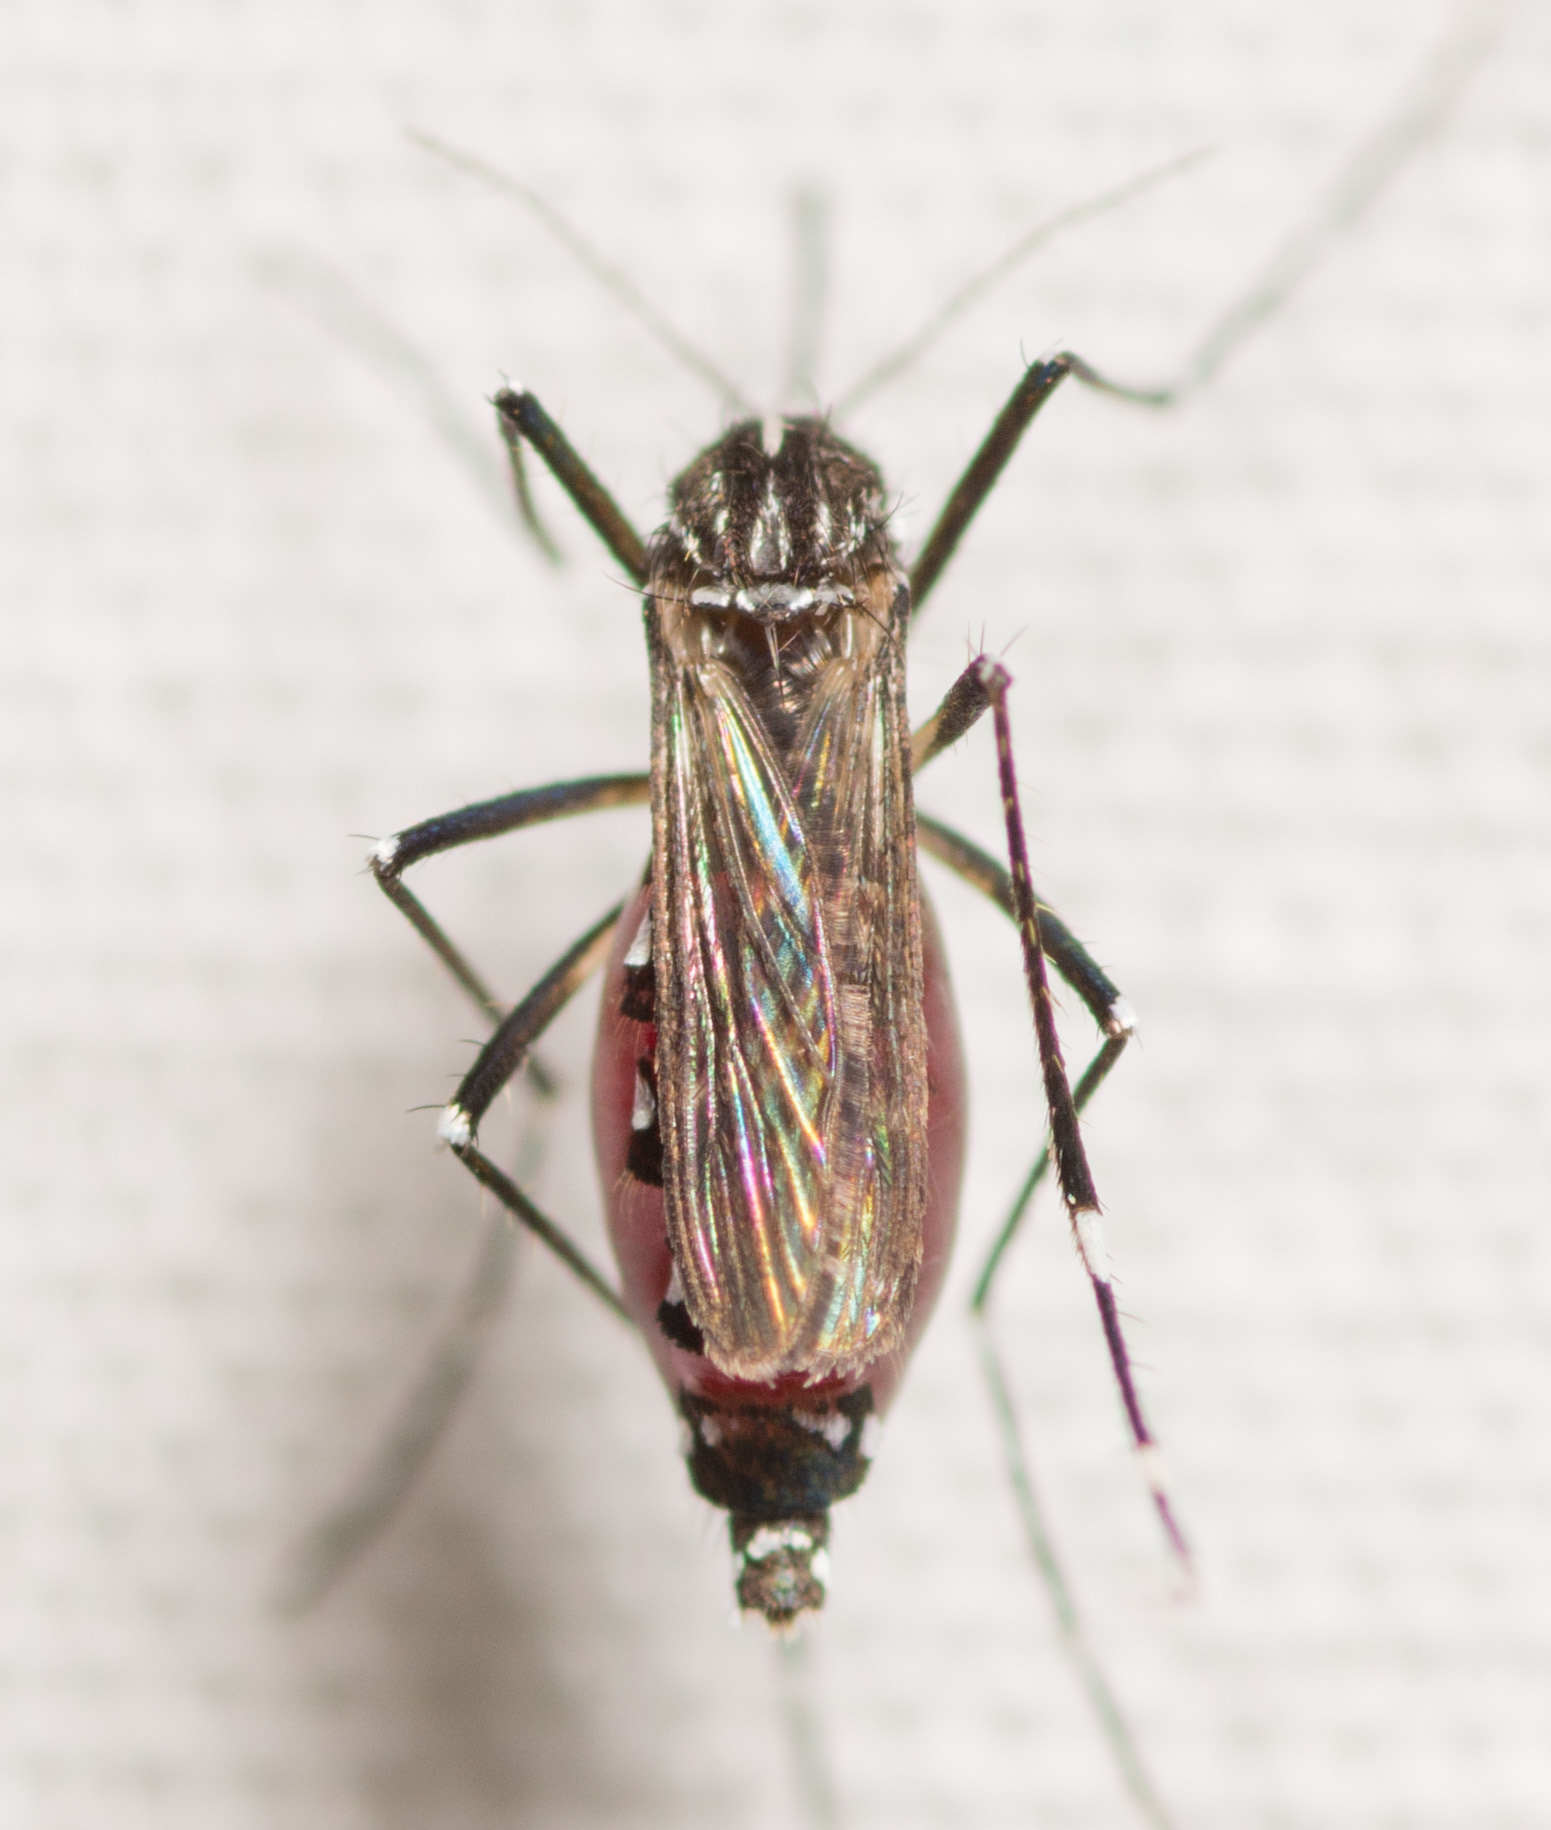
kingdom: Animalia
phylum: Arthropoda
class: Insecta
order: Diptera
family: Culicidae
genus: Aedes
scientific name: Aedes albopictus
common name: Tiger mosquito
